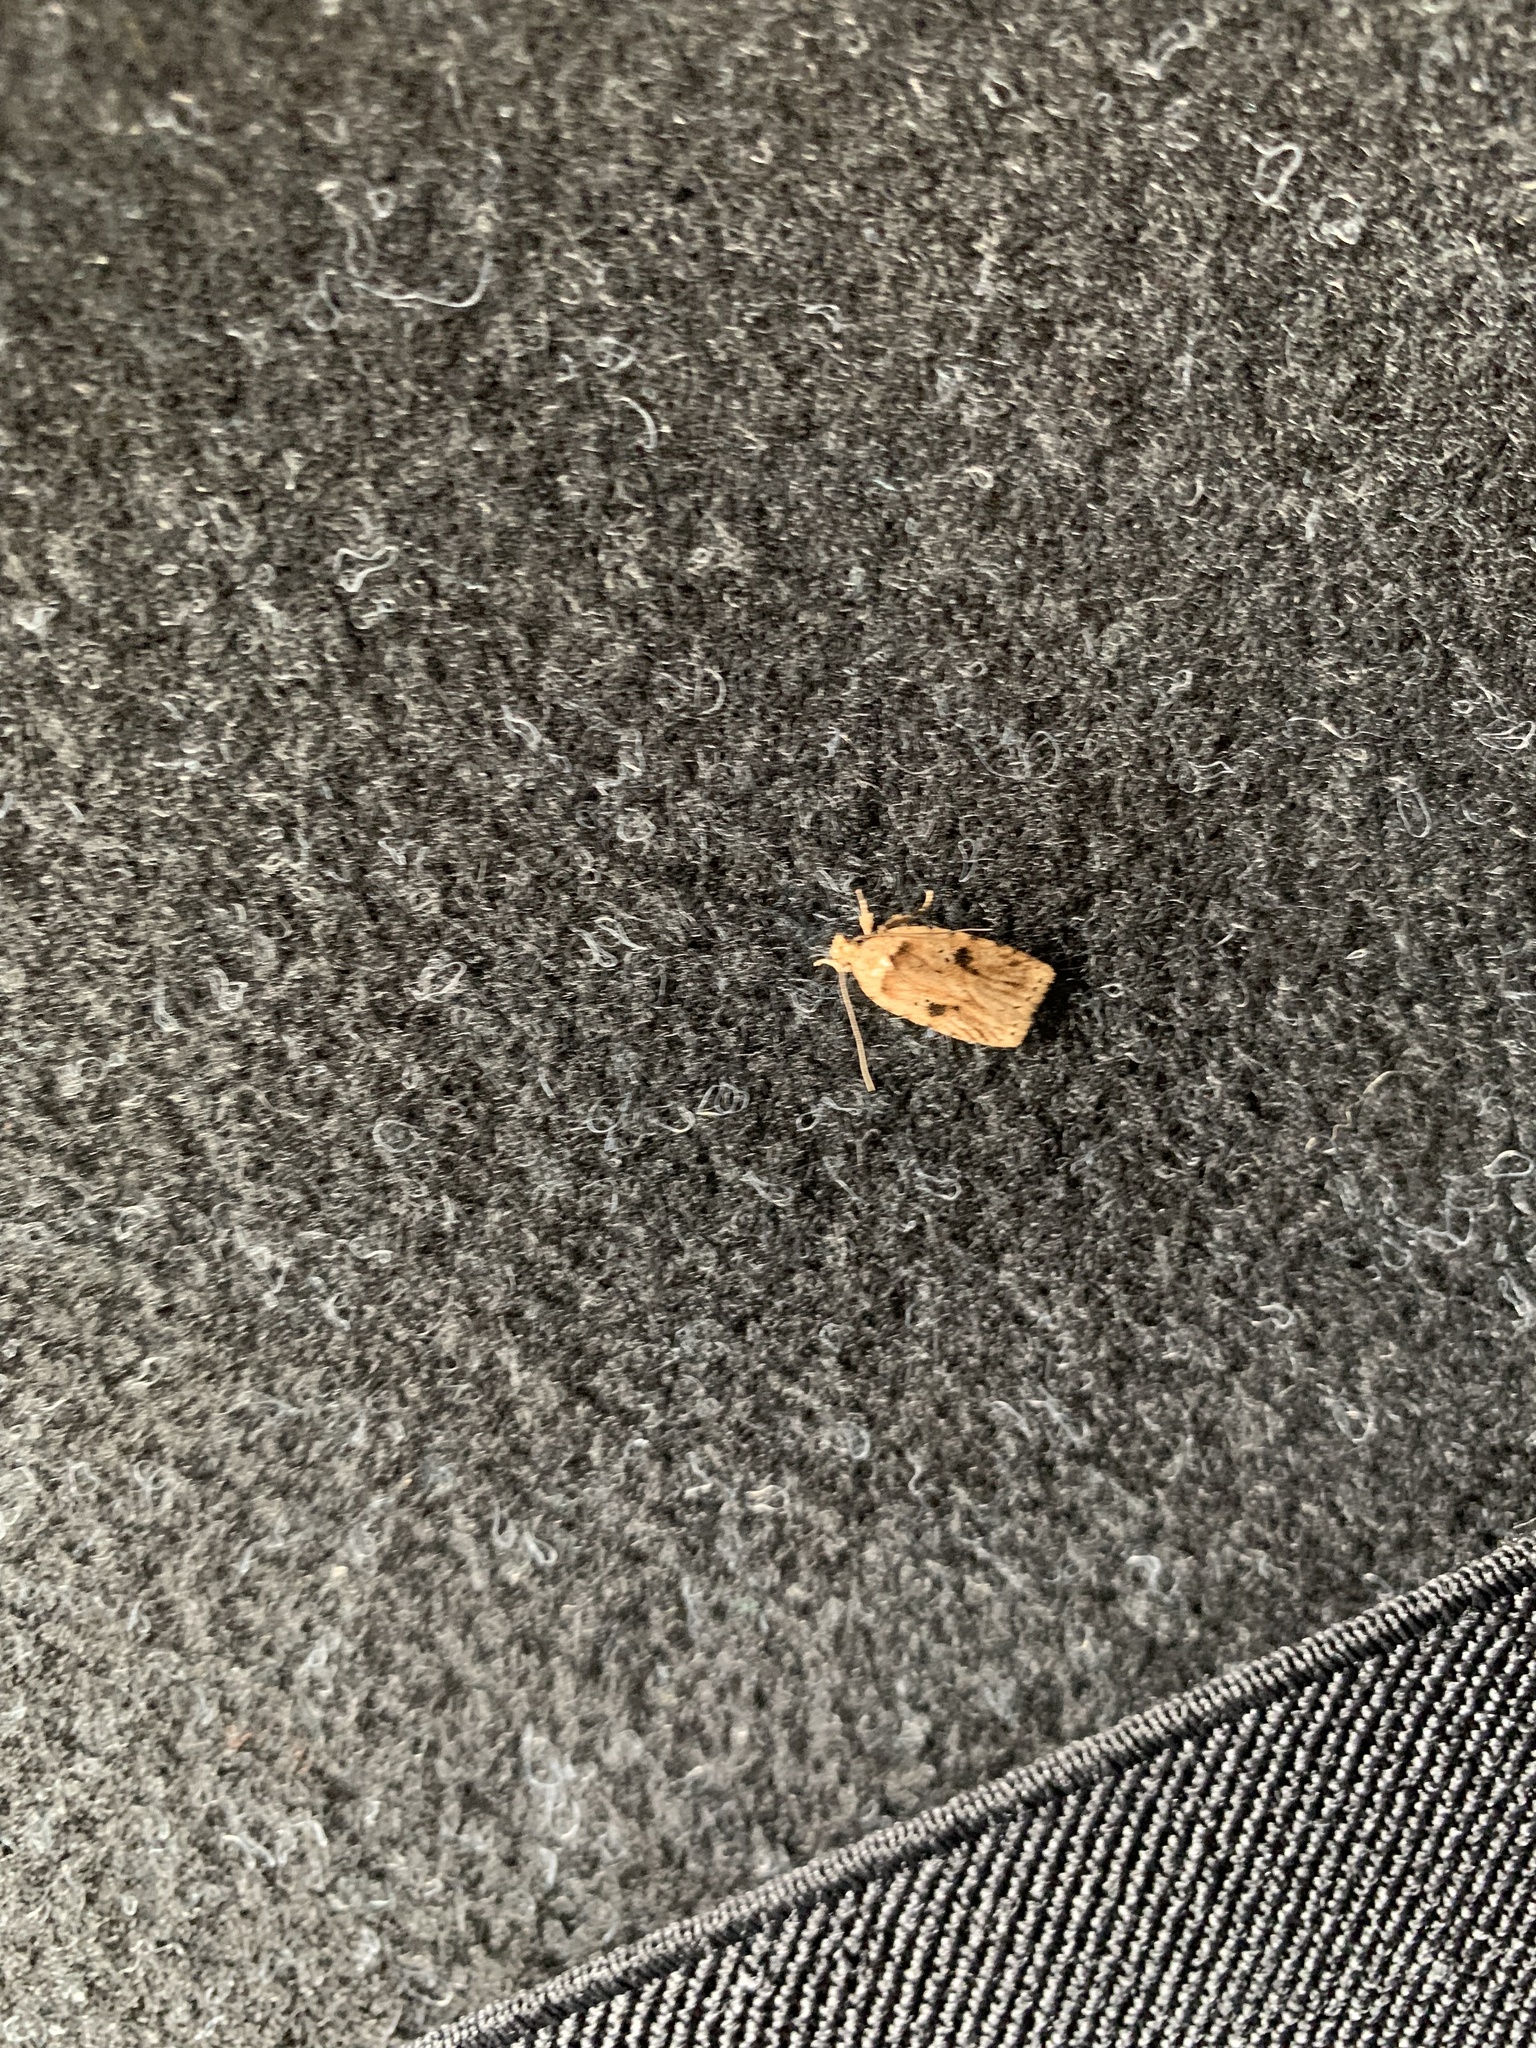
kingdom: Animalia
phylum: Arthropoda
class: Insecta
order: Lepidoptera
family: Depressariidae
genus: Agonopterix
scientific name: Agonopterix arenella
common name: Brindled flat-body
